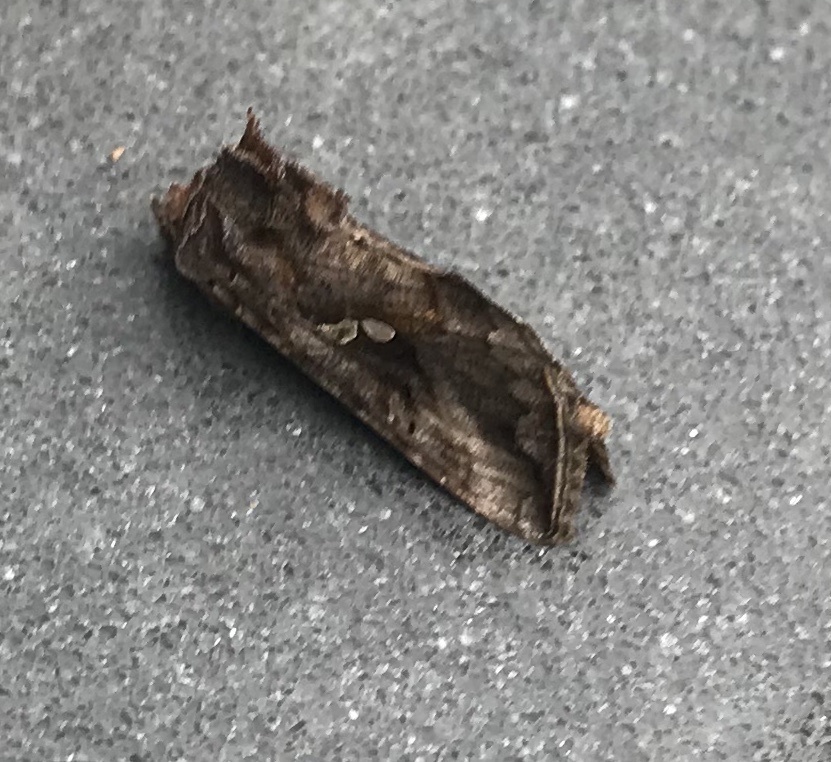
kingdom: Animalia
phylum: Arthropoda
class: Insecta
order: Lepidoptera
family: Noctuidae
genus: Autographa
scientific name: Autographa precationis
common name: Common looper moth
